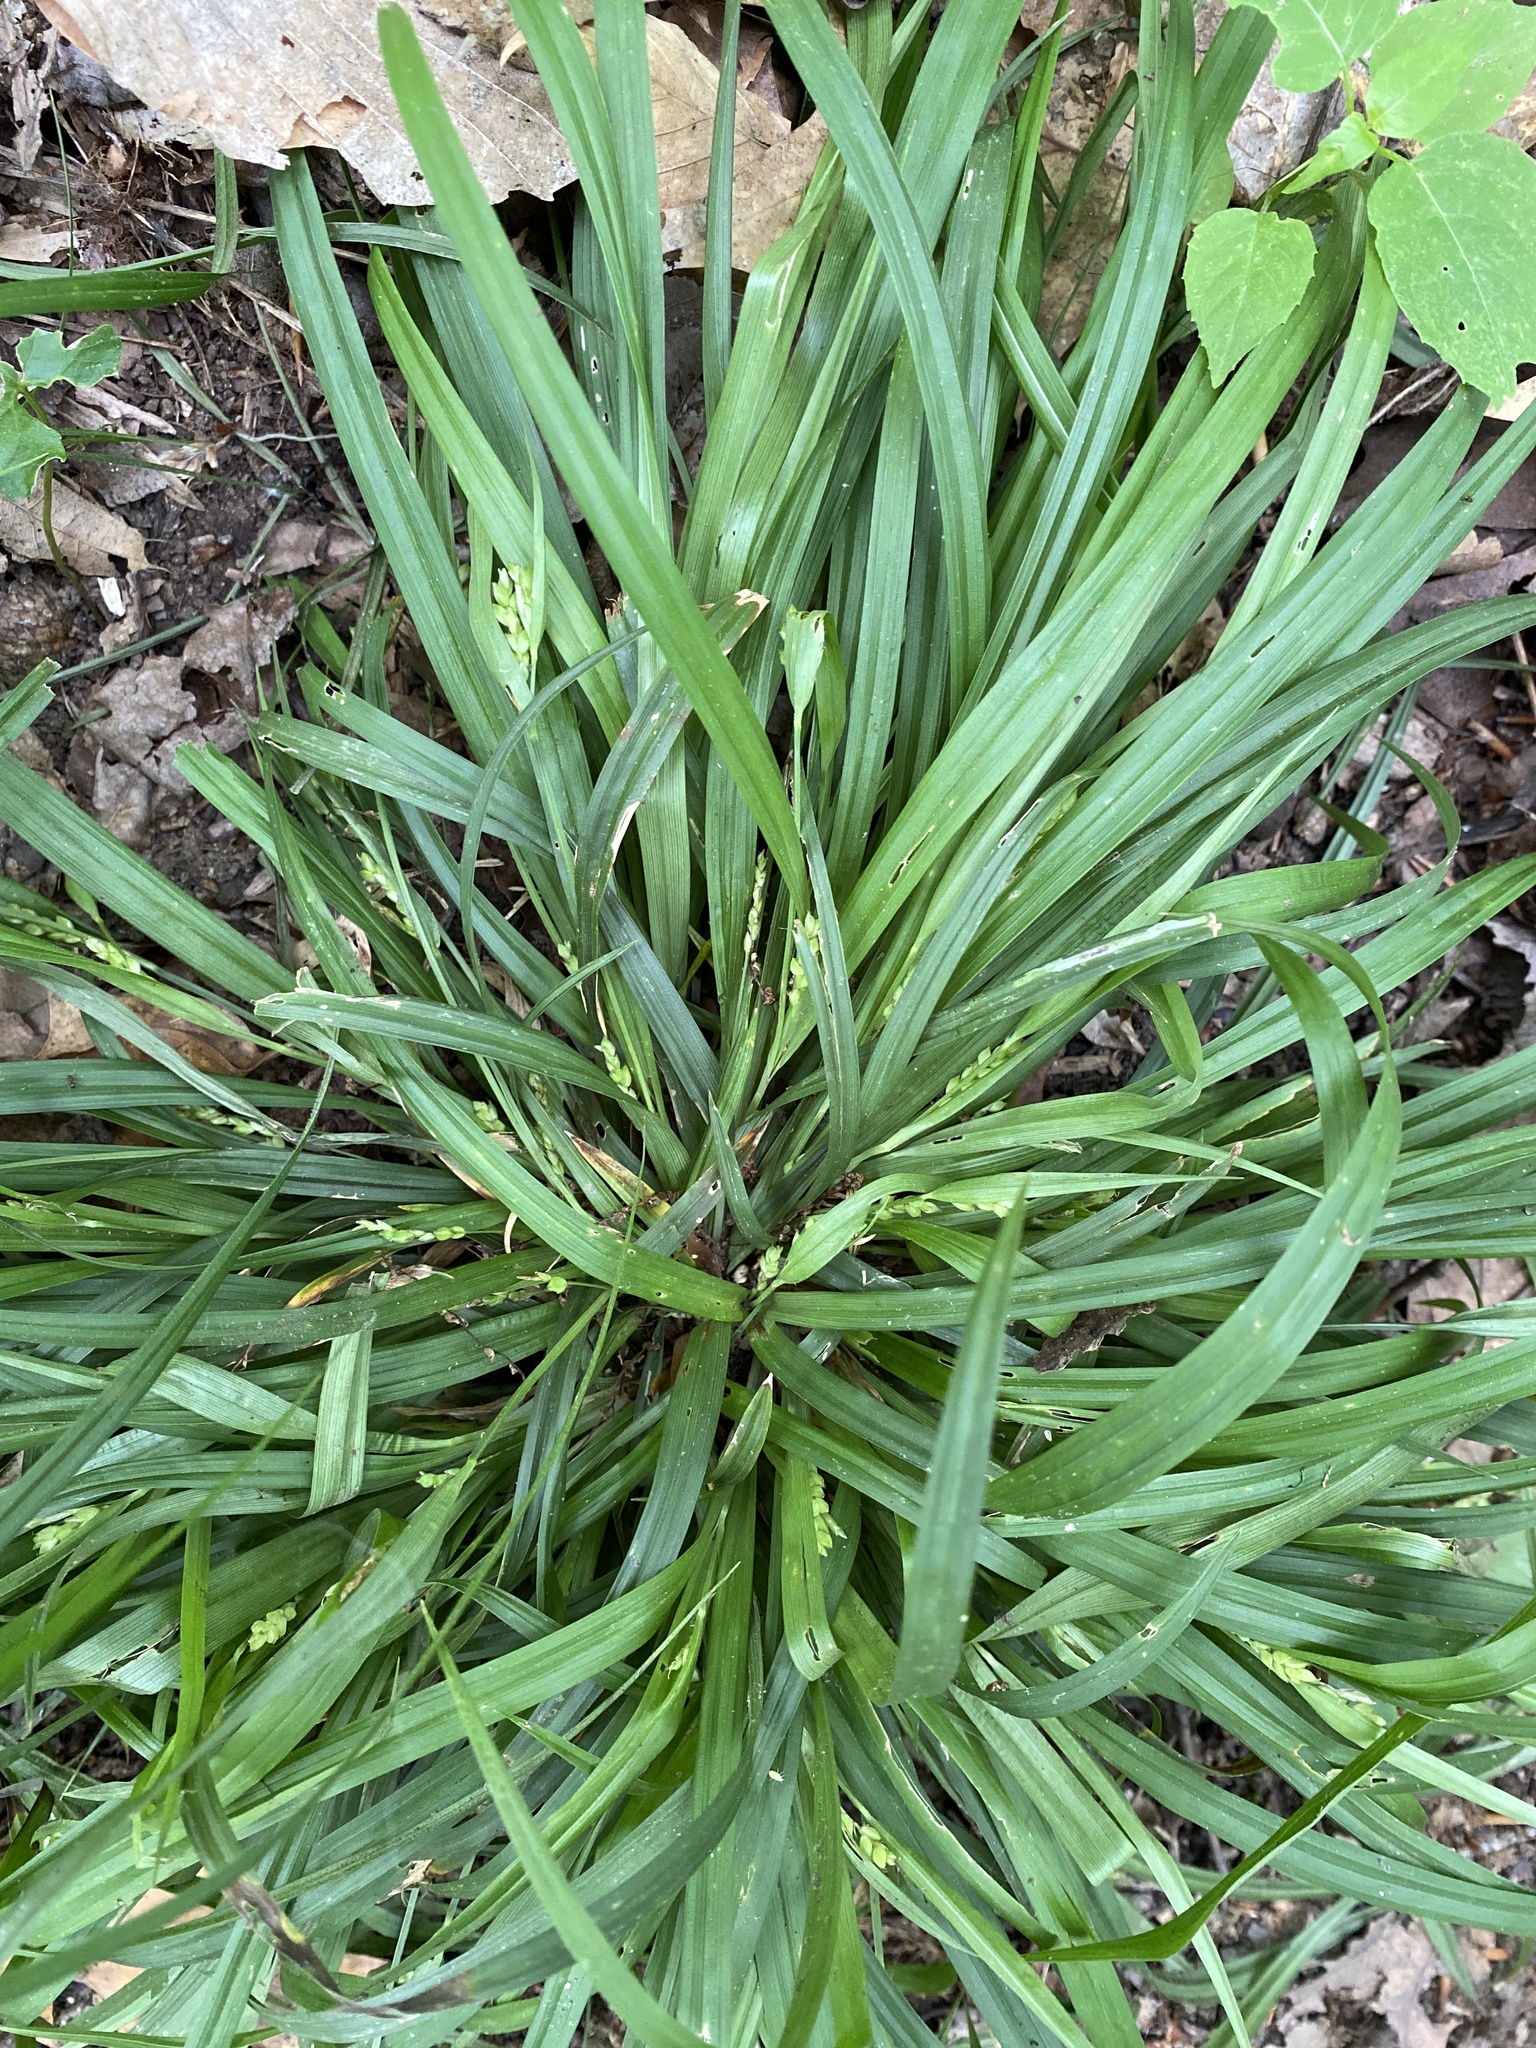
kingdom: Plantae
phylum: Tracheophyta
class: Liliopsida
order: Poales
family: Cyperaceae
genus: Carex
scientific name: Carex abscondita
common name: Thicket sedge
